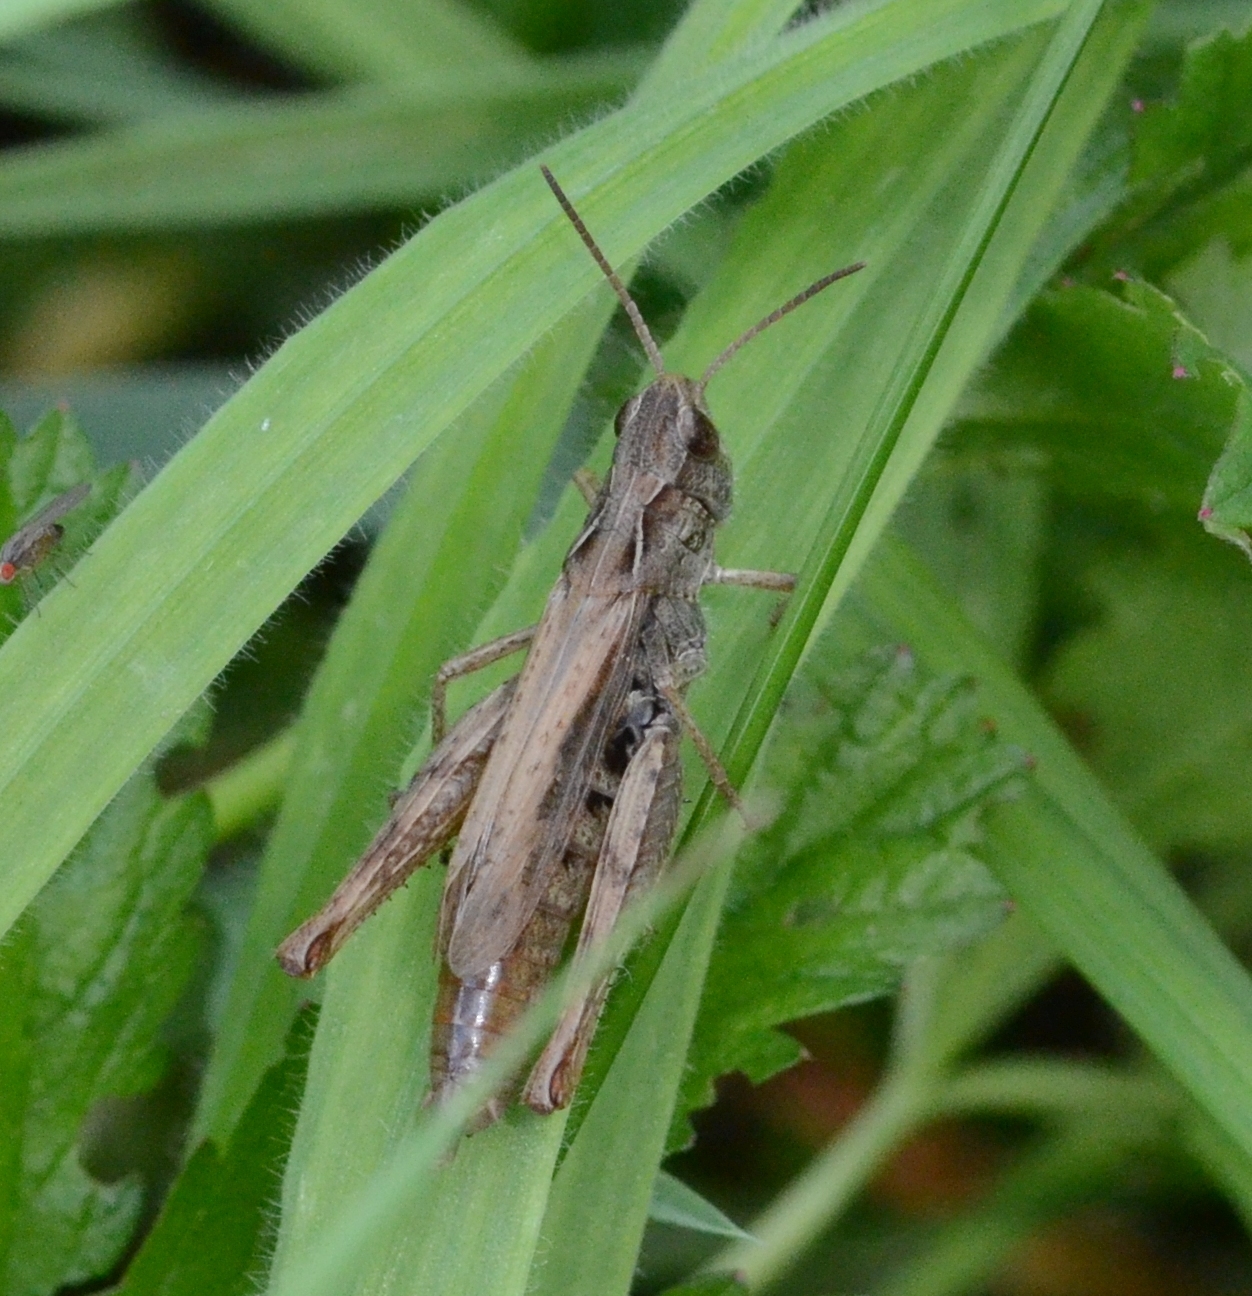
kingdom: Animalia
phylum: Arthropoda
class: Insecta
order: Orthoptera
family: Acrididae
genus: Chorthippus
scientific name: Chorthippus apricarius
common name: Upland field grasshopper
